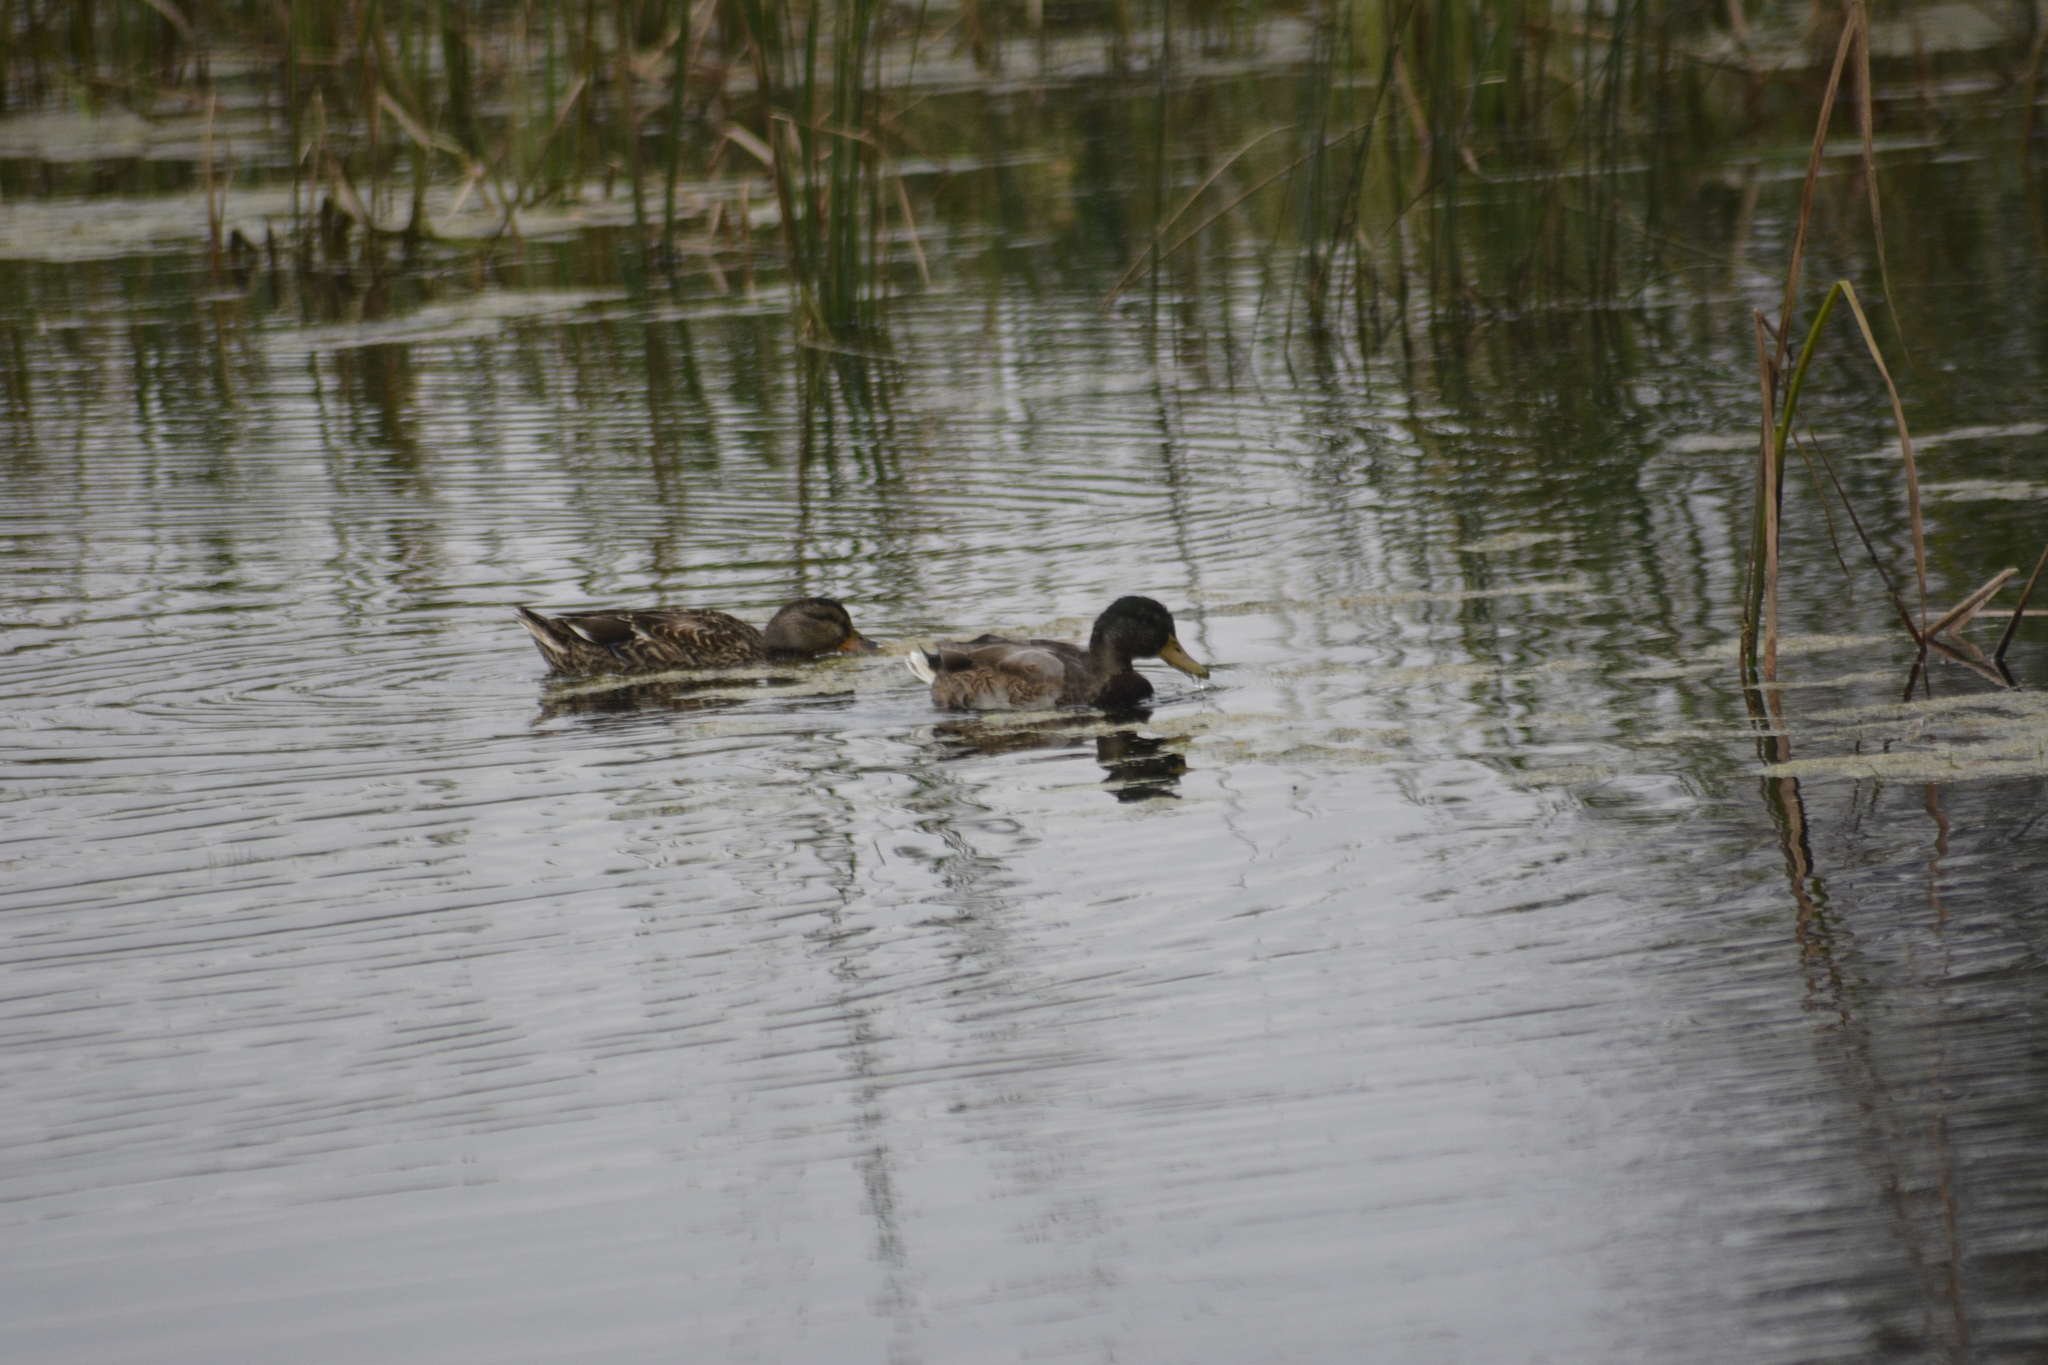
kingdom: Animalia
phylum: Chordata
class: Aves
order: Anseriformes
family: Anatidae
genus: Anas
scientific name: Anas platyrhynchos
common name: Mallard
